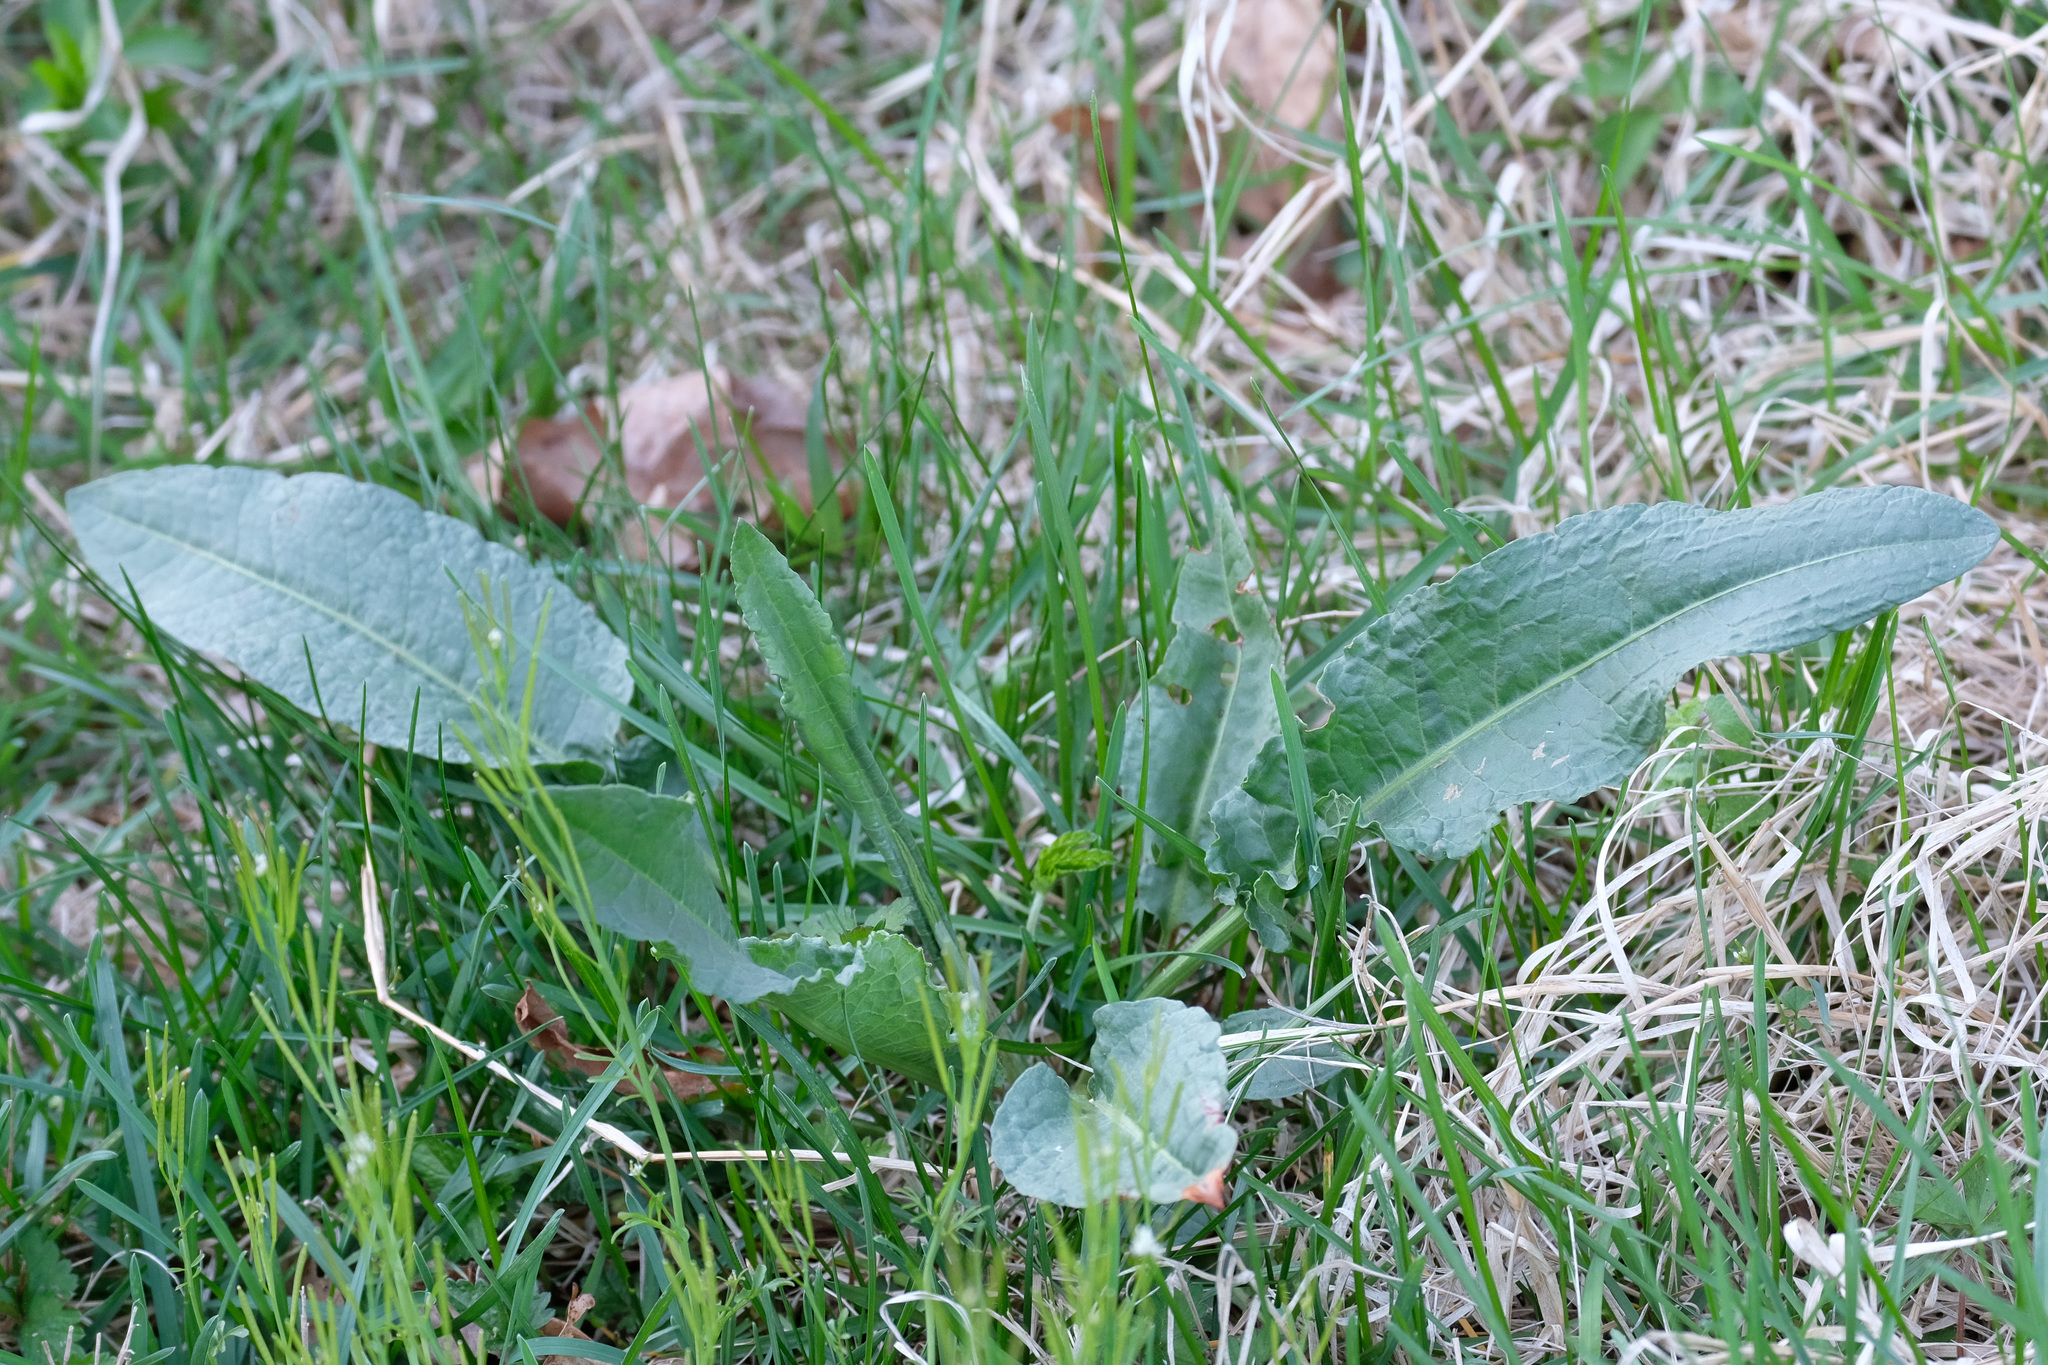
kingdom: Plantae
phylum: Tracheophyta
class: Magnoliopsida
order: Caryophyllales
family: Polygonaceae
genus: Rumex
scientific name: Rumex crispus
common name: Curled dock
